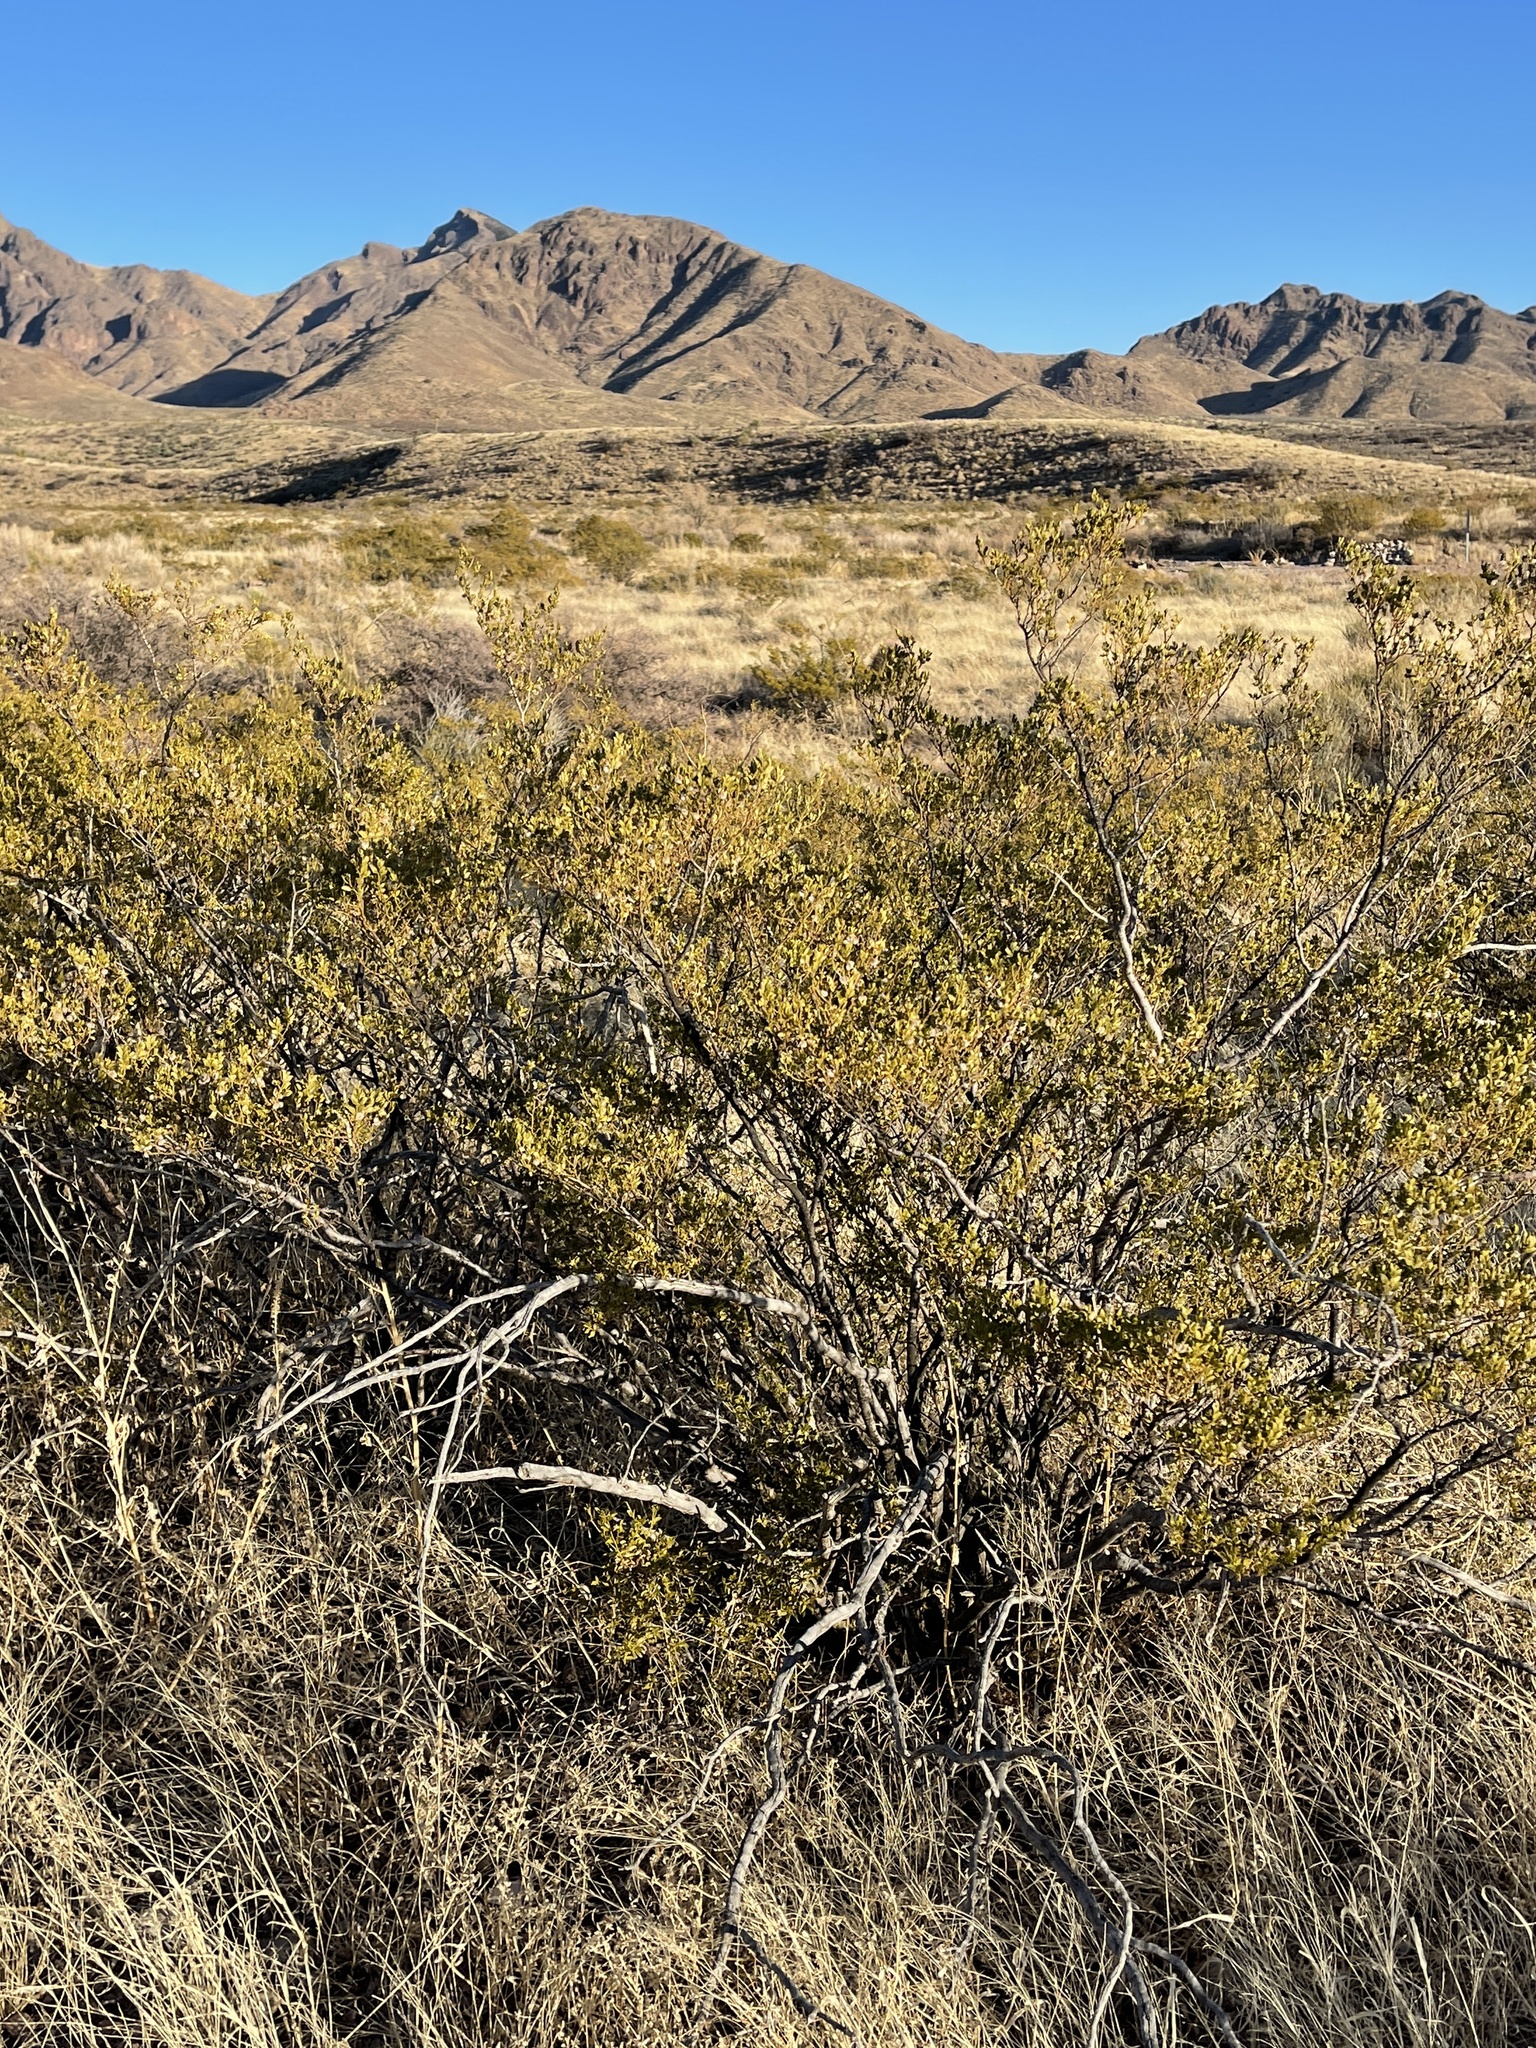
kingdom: Plantae
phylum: Tracheophyta
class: Magnoliopsida
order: Zygophyllales
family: Zygophyllaceae
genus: Larrea
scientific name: Larrea tridentata
